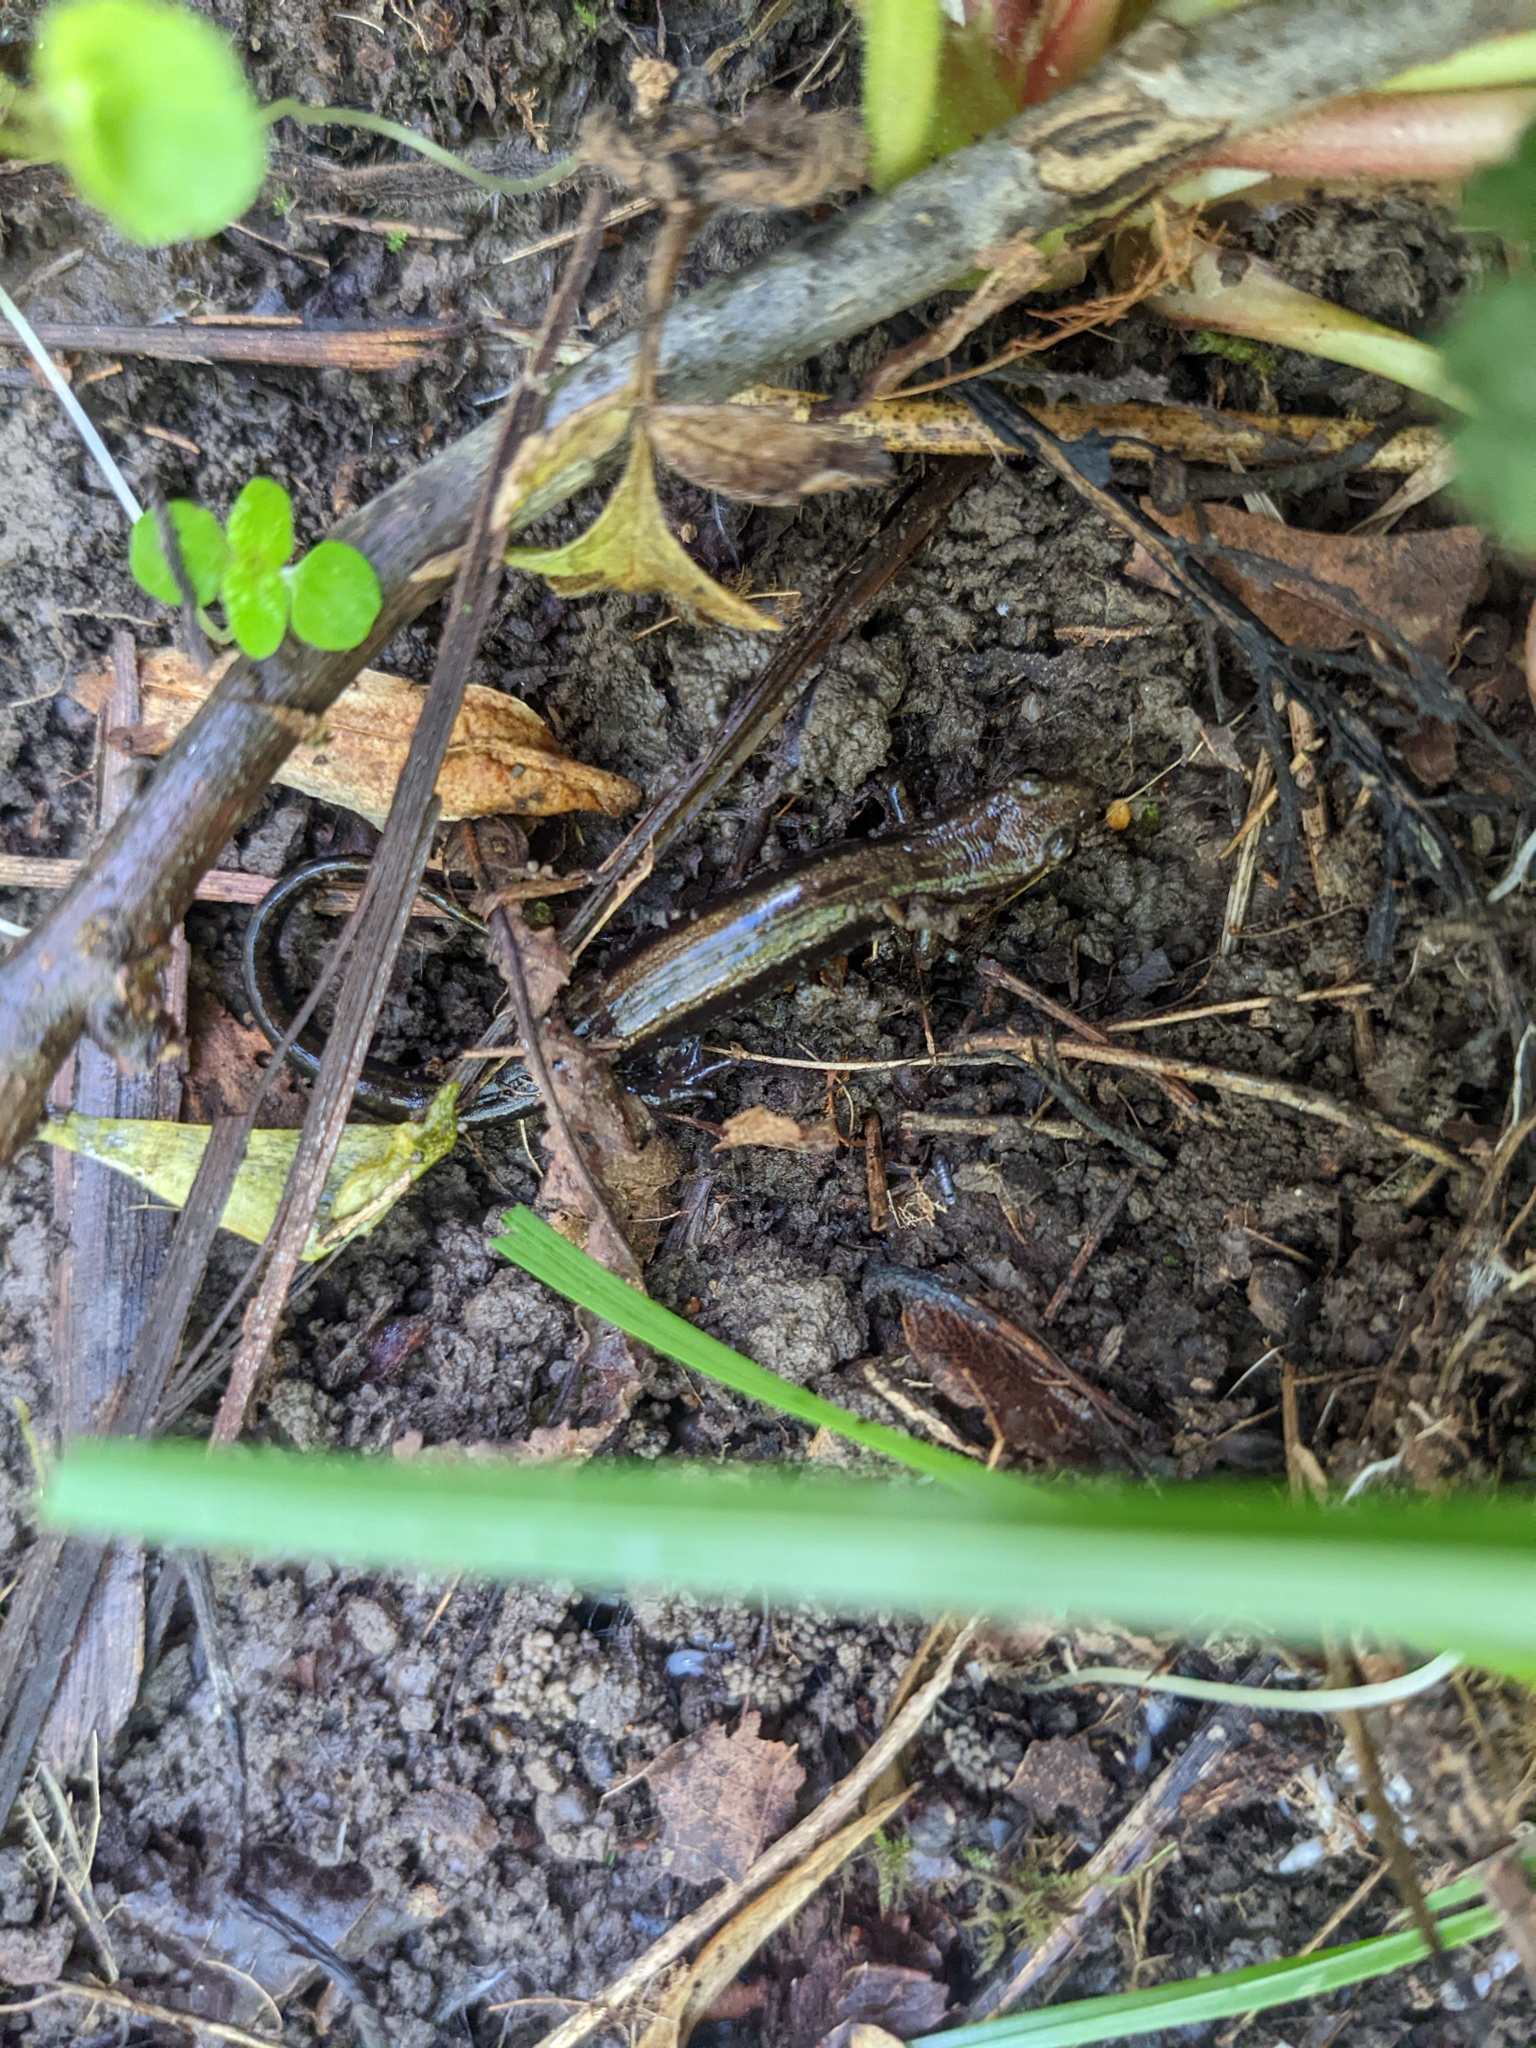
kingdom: Animalia
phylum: Chordata
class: Amphibia
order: Caudata
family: Plethodontidae
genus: Desmognathus
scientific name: Desmognathus ochrophaeus
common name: Allegheny mountain dusky salamander
